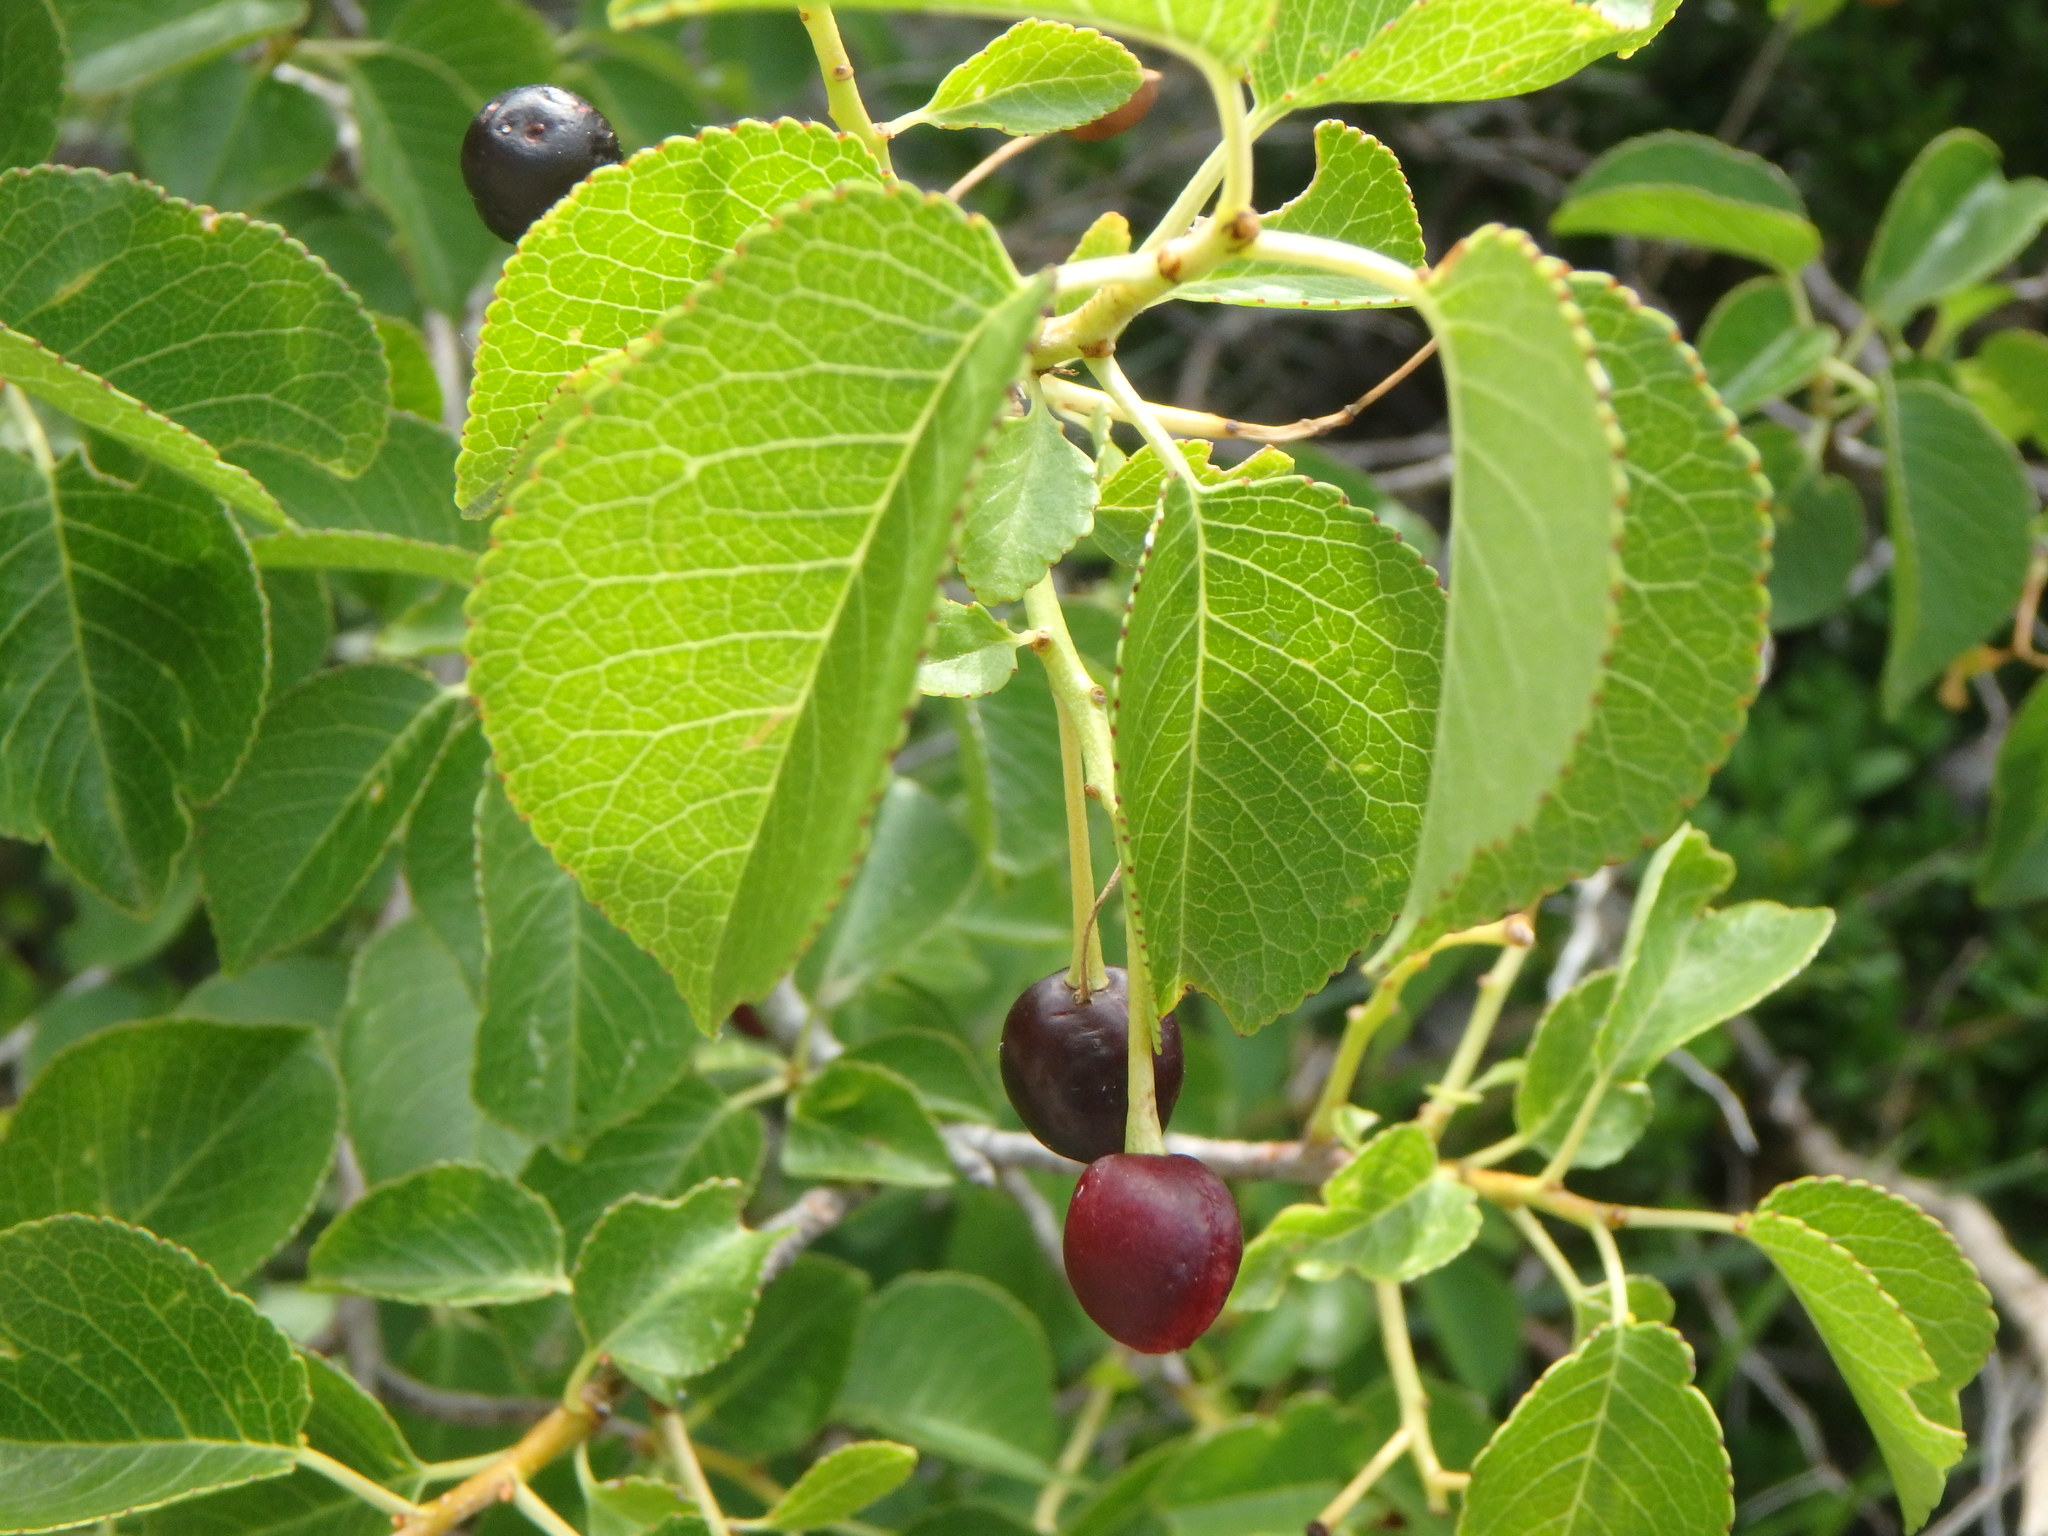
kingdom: Plantae
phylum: Tracheophyta
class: Magnoliopsida
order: Rosales
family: Rosaceae
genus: Prunus
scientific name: Prunus mahaleb
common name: Mahaleb cherry
